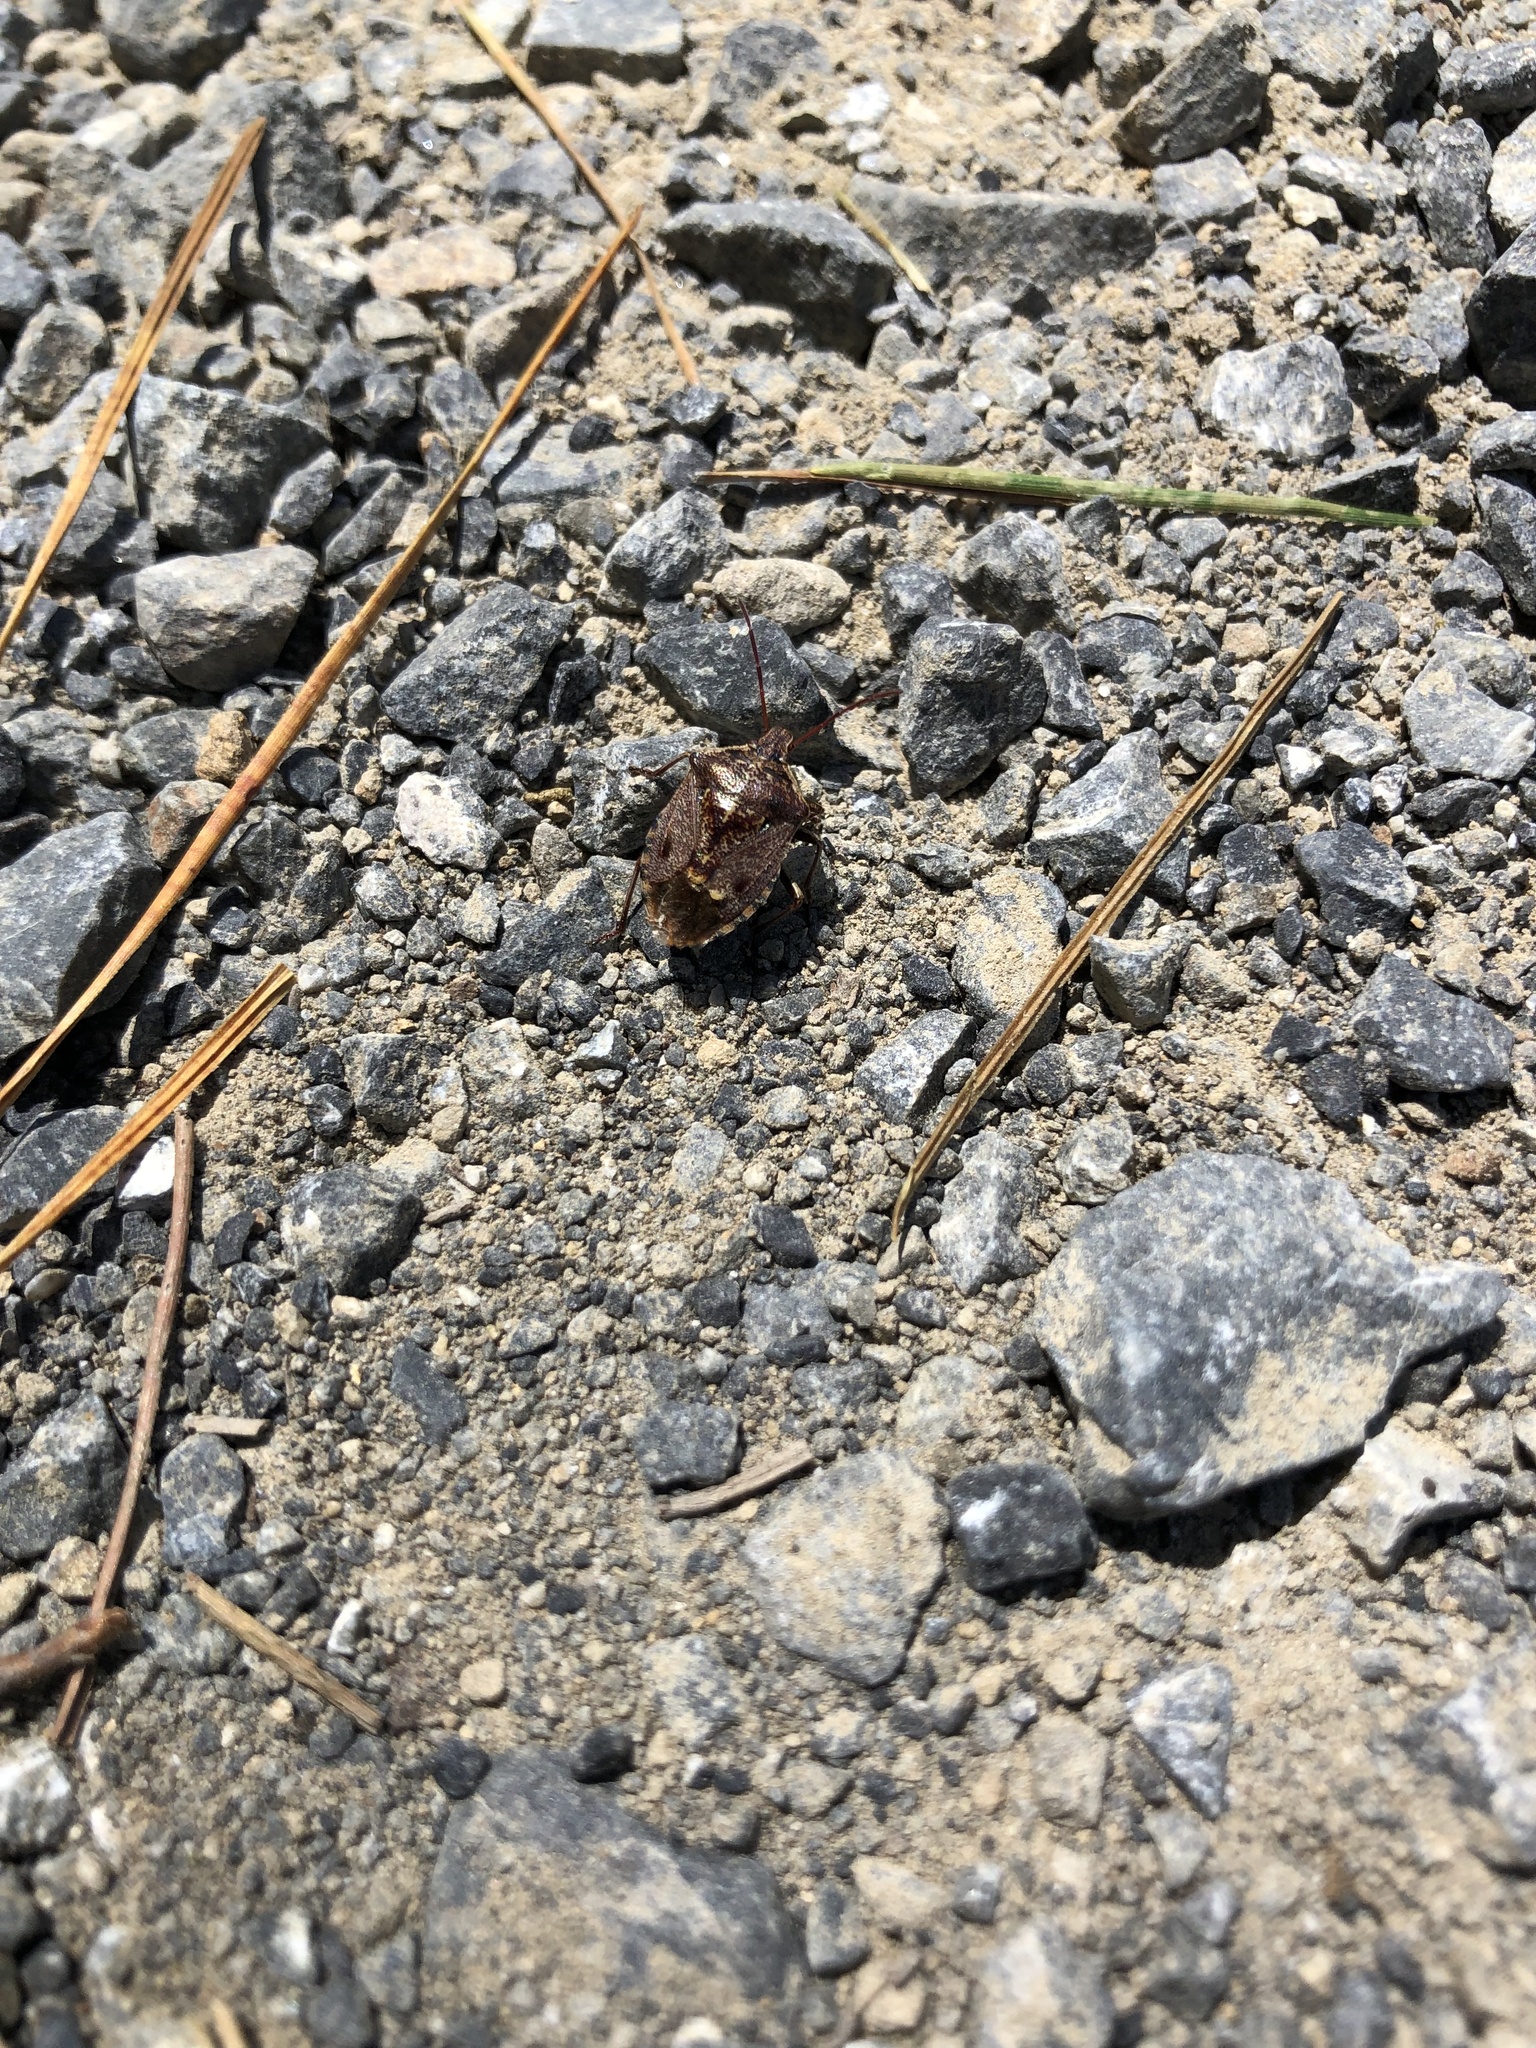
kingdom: Animalia
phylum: Arthropoda
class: Insecta
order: Hemiptera
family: Pentatomidae
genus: Cermatulus
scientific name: Cermatulus nasalis
